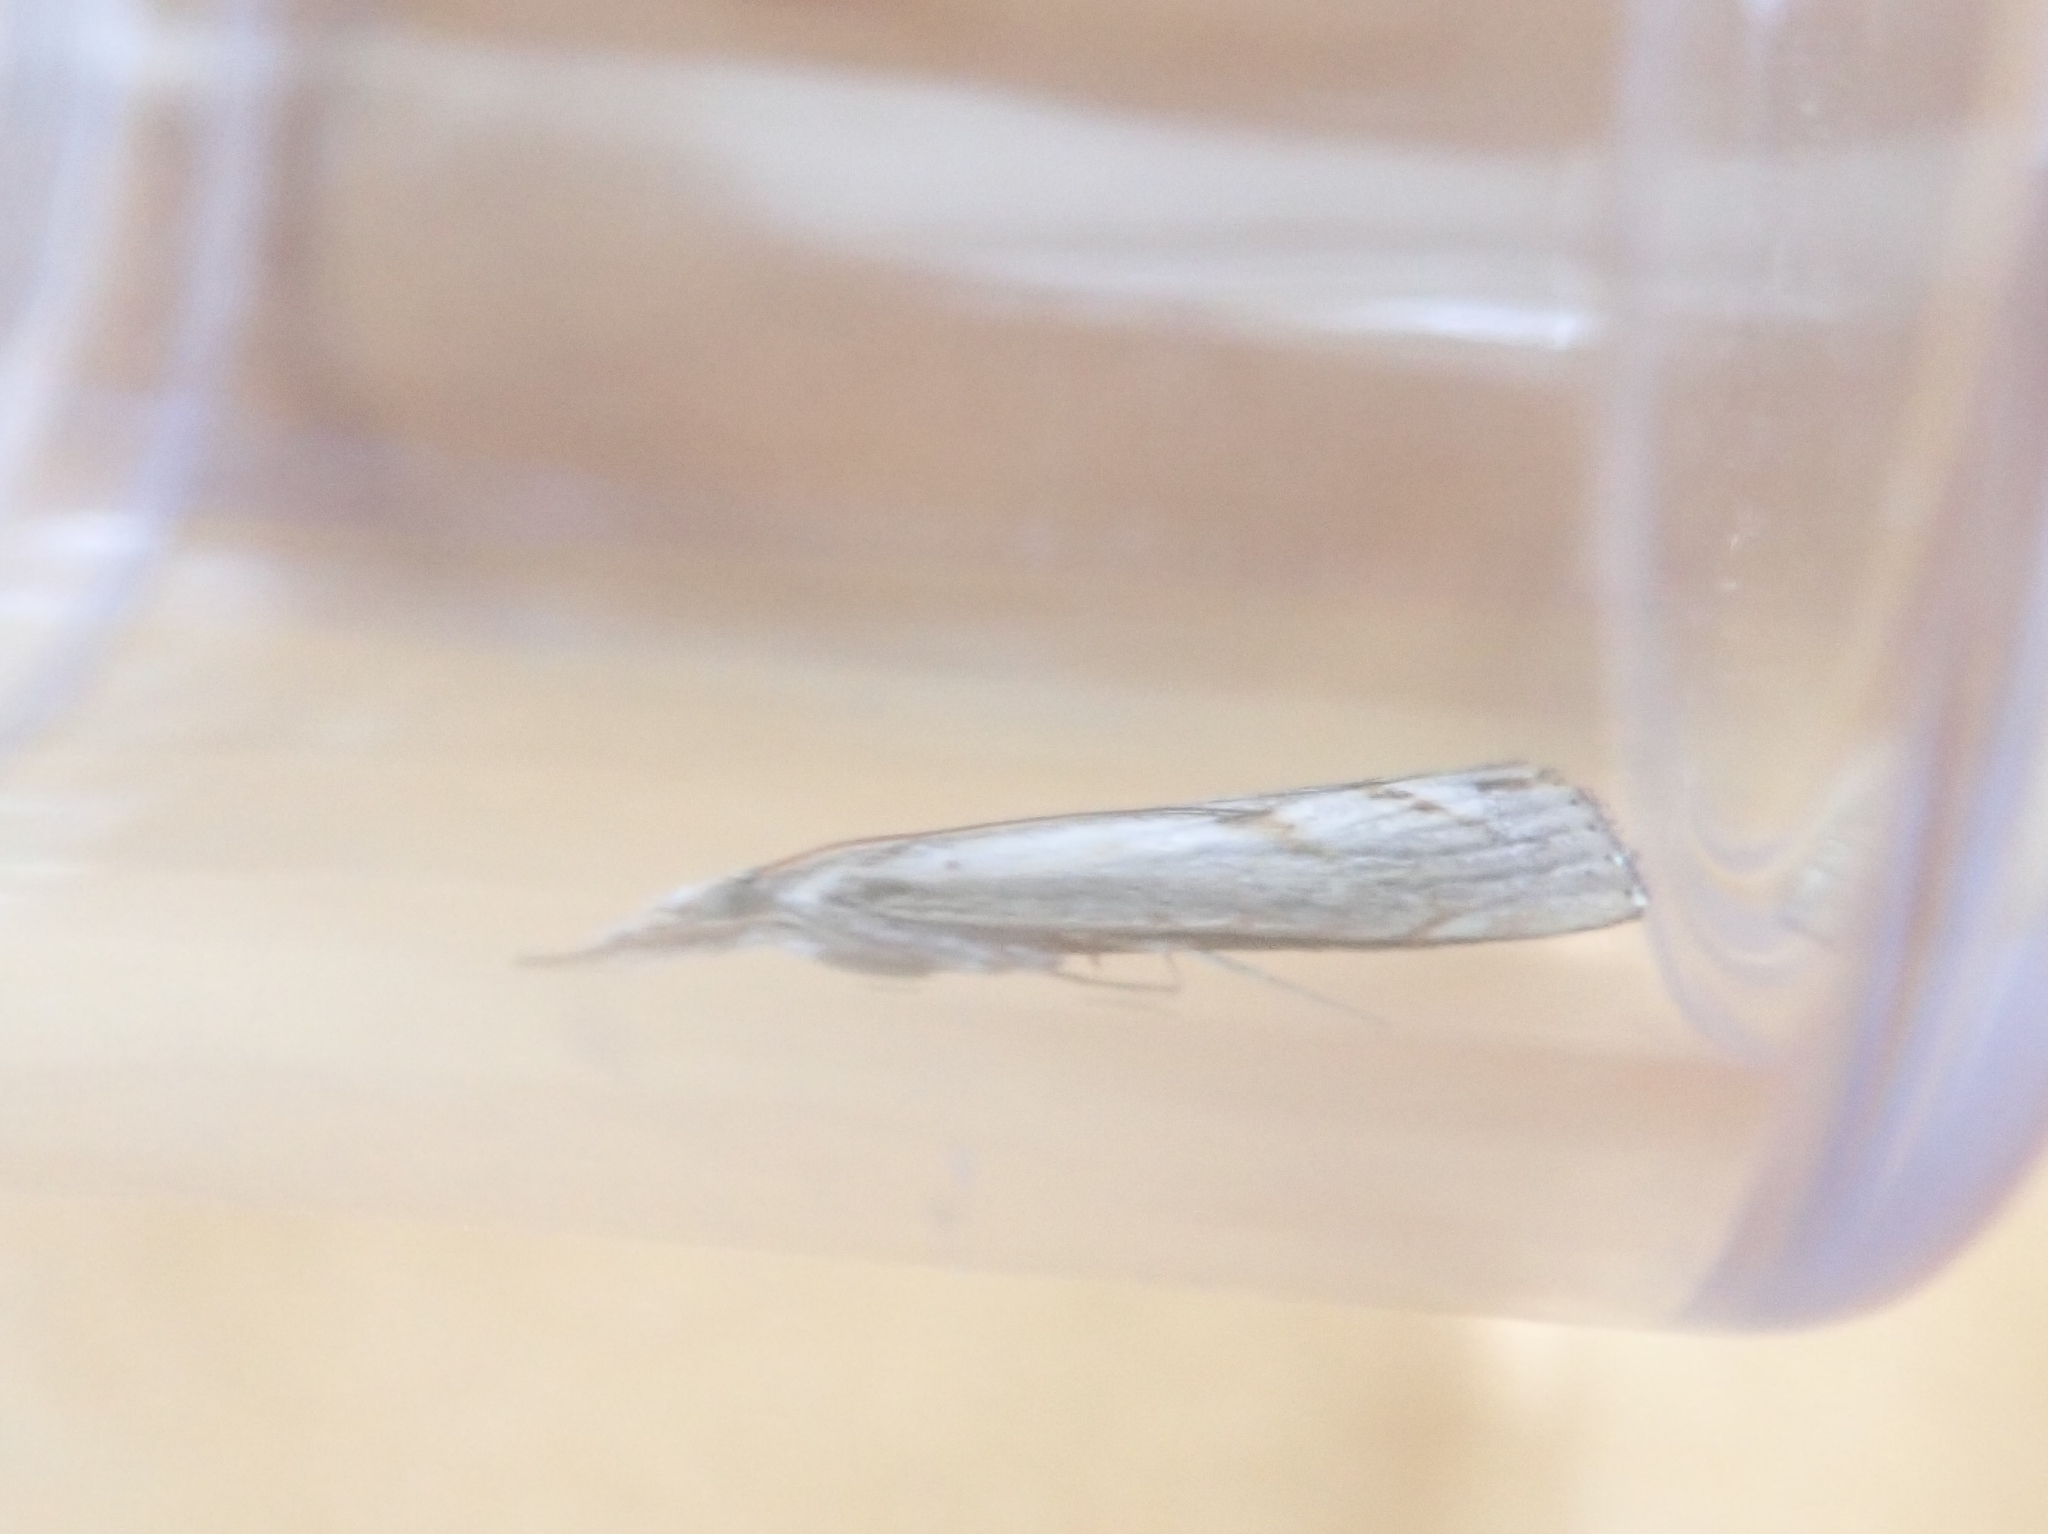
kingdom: Animalia
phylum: Arthropoda
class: Insecta
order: Lepidoptera
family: Crambidae
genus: Agriphila
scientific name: Agriphila geniculea
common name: Elbow-stripe grass-veneer
